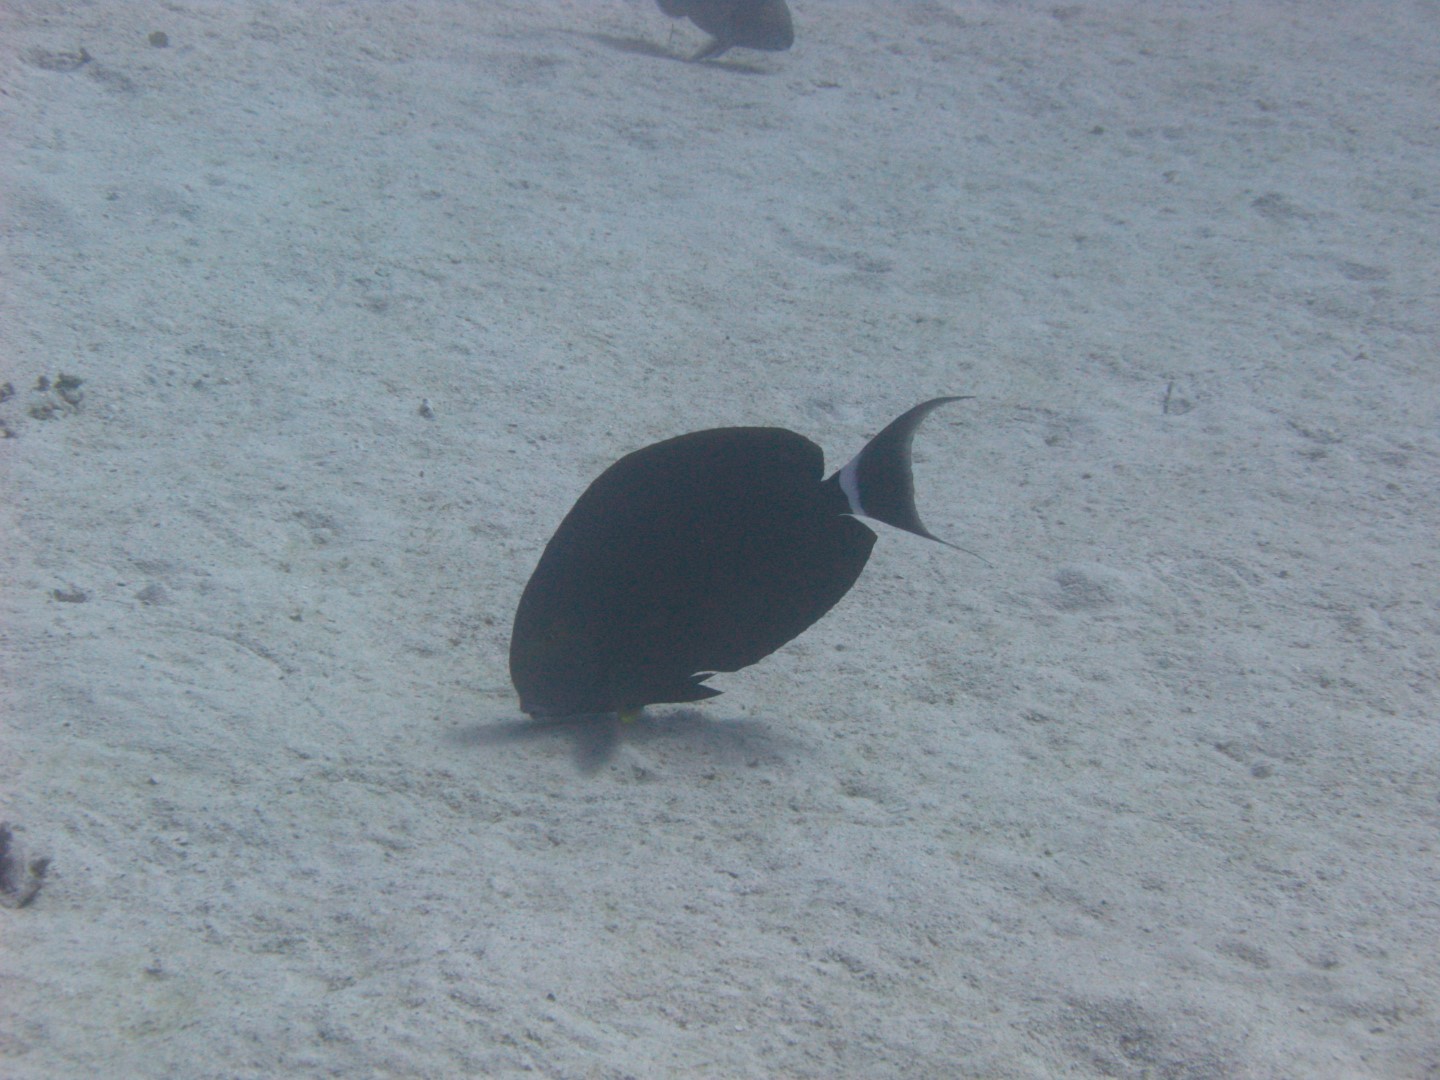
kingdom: Animalia
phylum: Chordata
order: Perciformes
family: Acanthuridae
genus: Acanthurus
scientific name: Acanthurus gahhm
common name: Black surgeonfish
